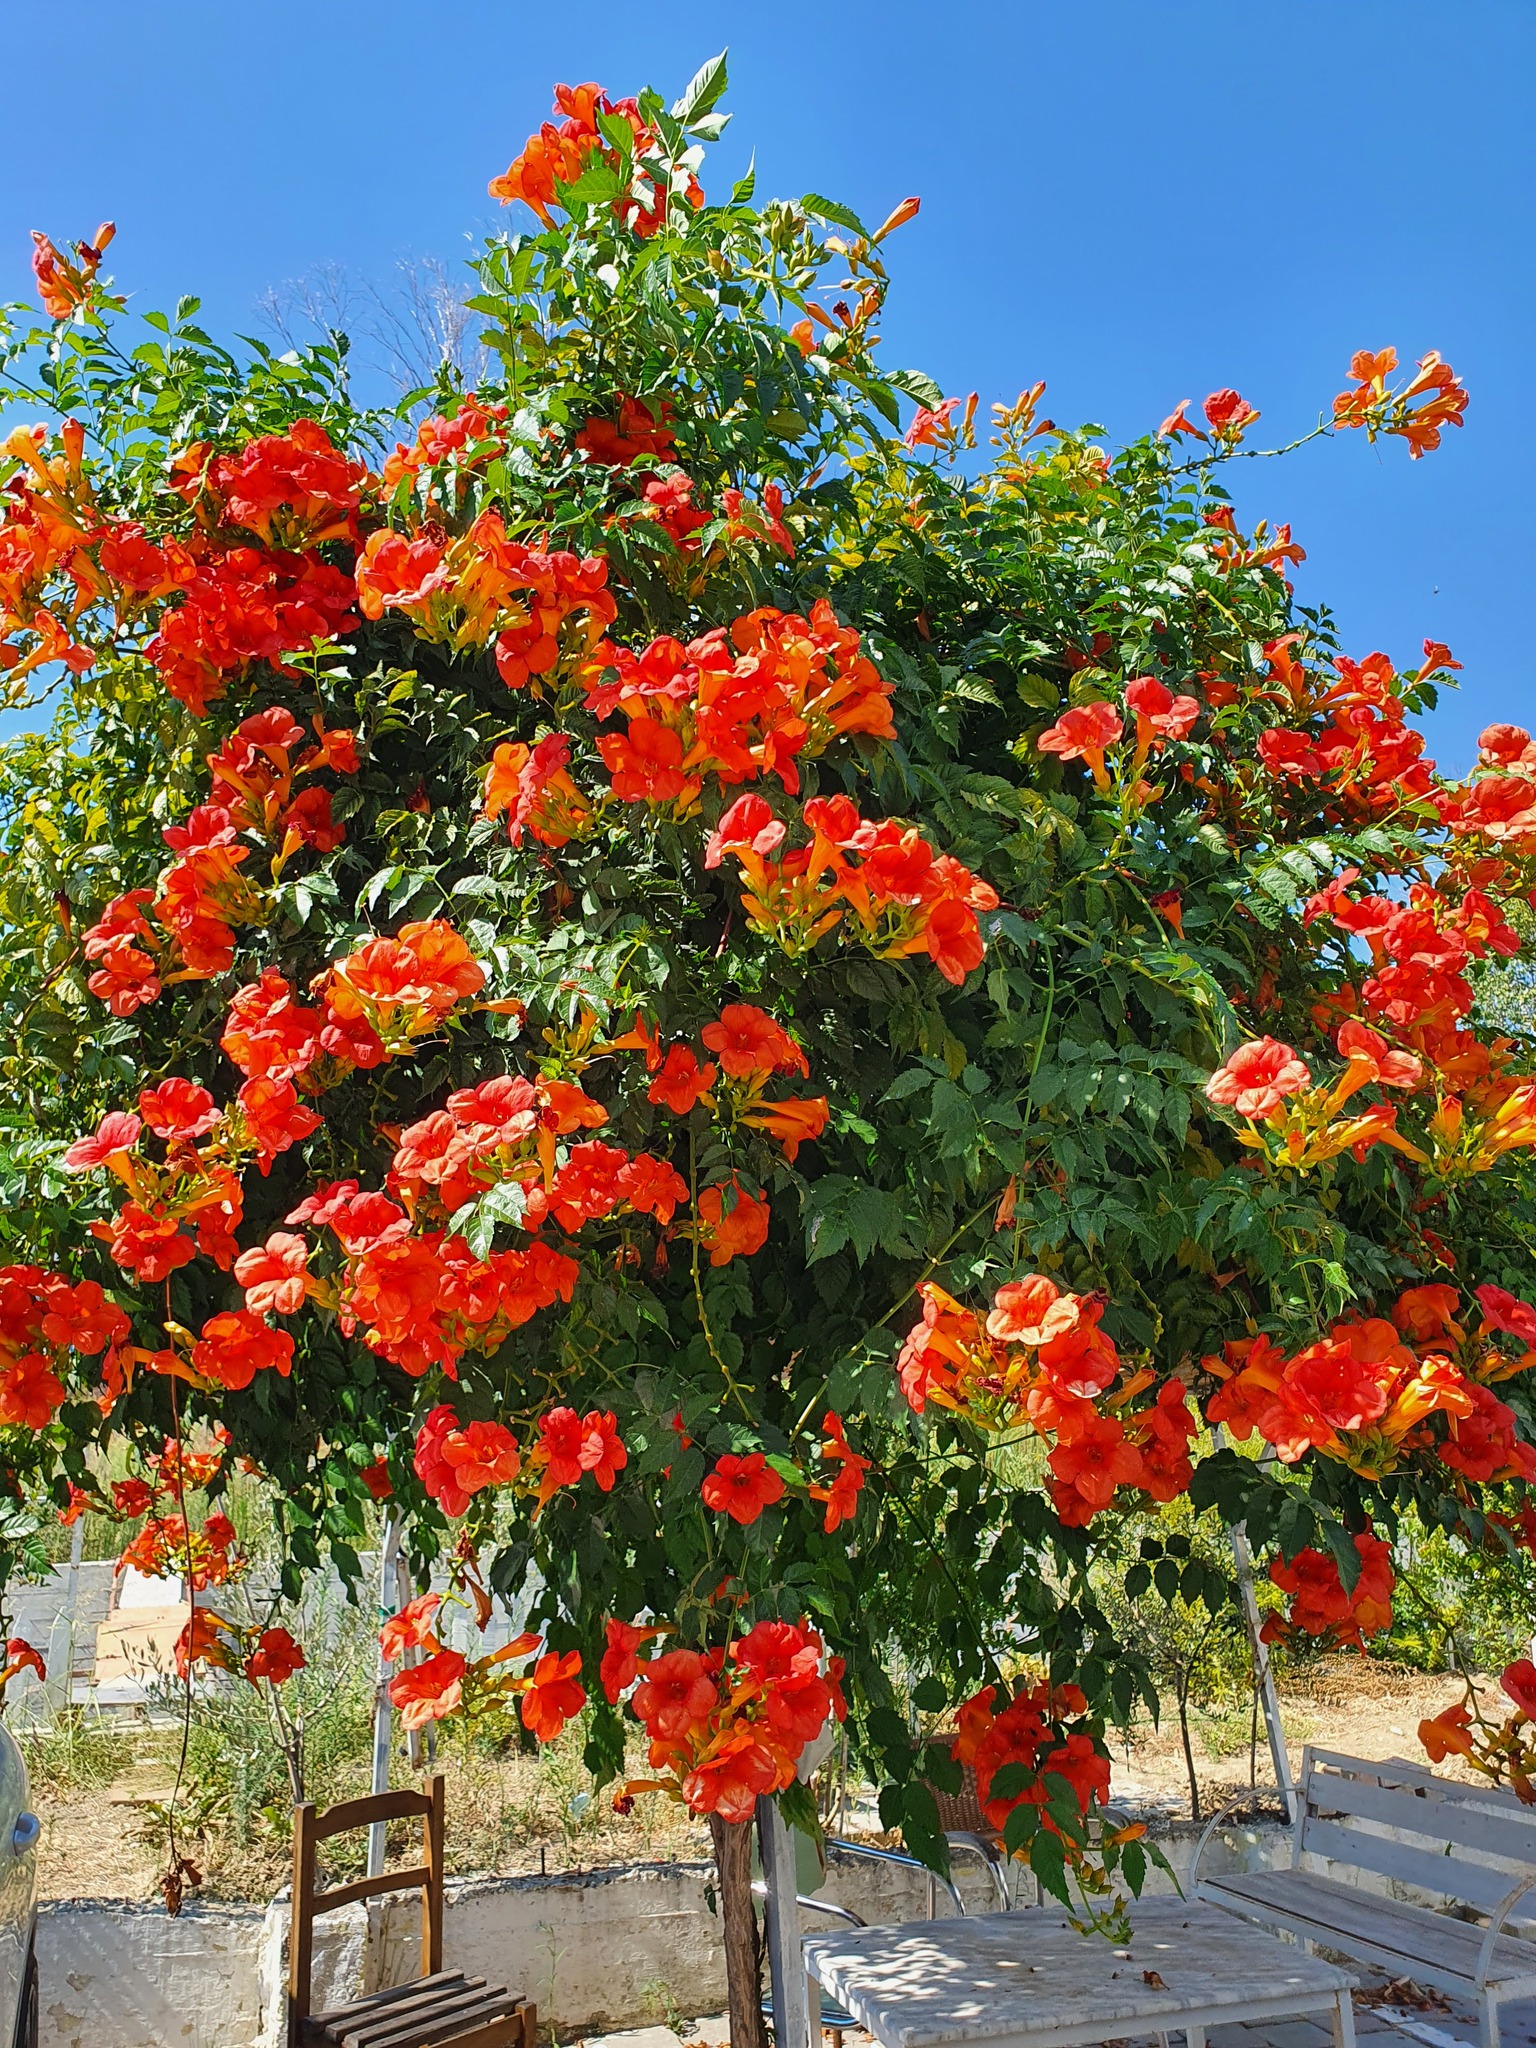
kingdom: Plantae
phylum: Tracheophyta
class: Magnoliopsida
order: Lamiales
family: Bignoniaceae
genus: Campsis
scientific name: Campsis tagliabueana
